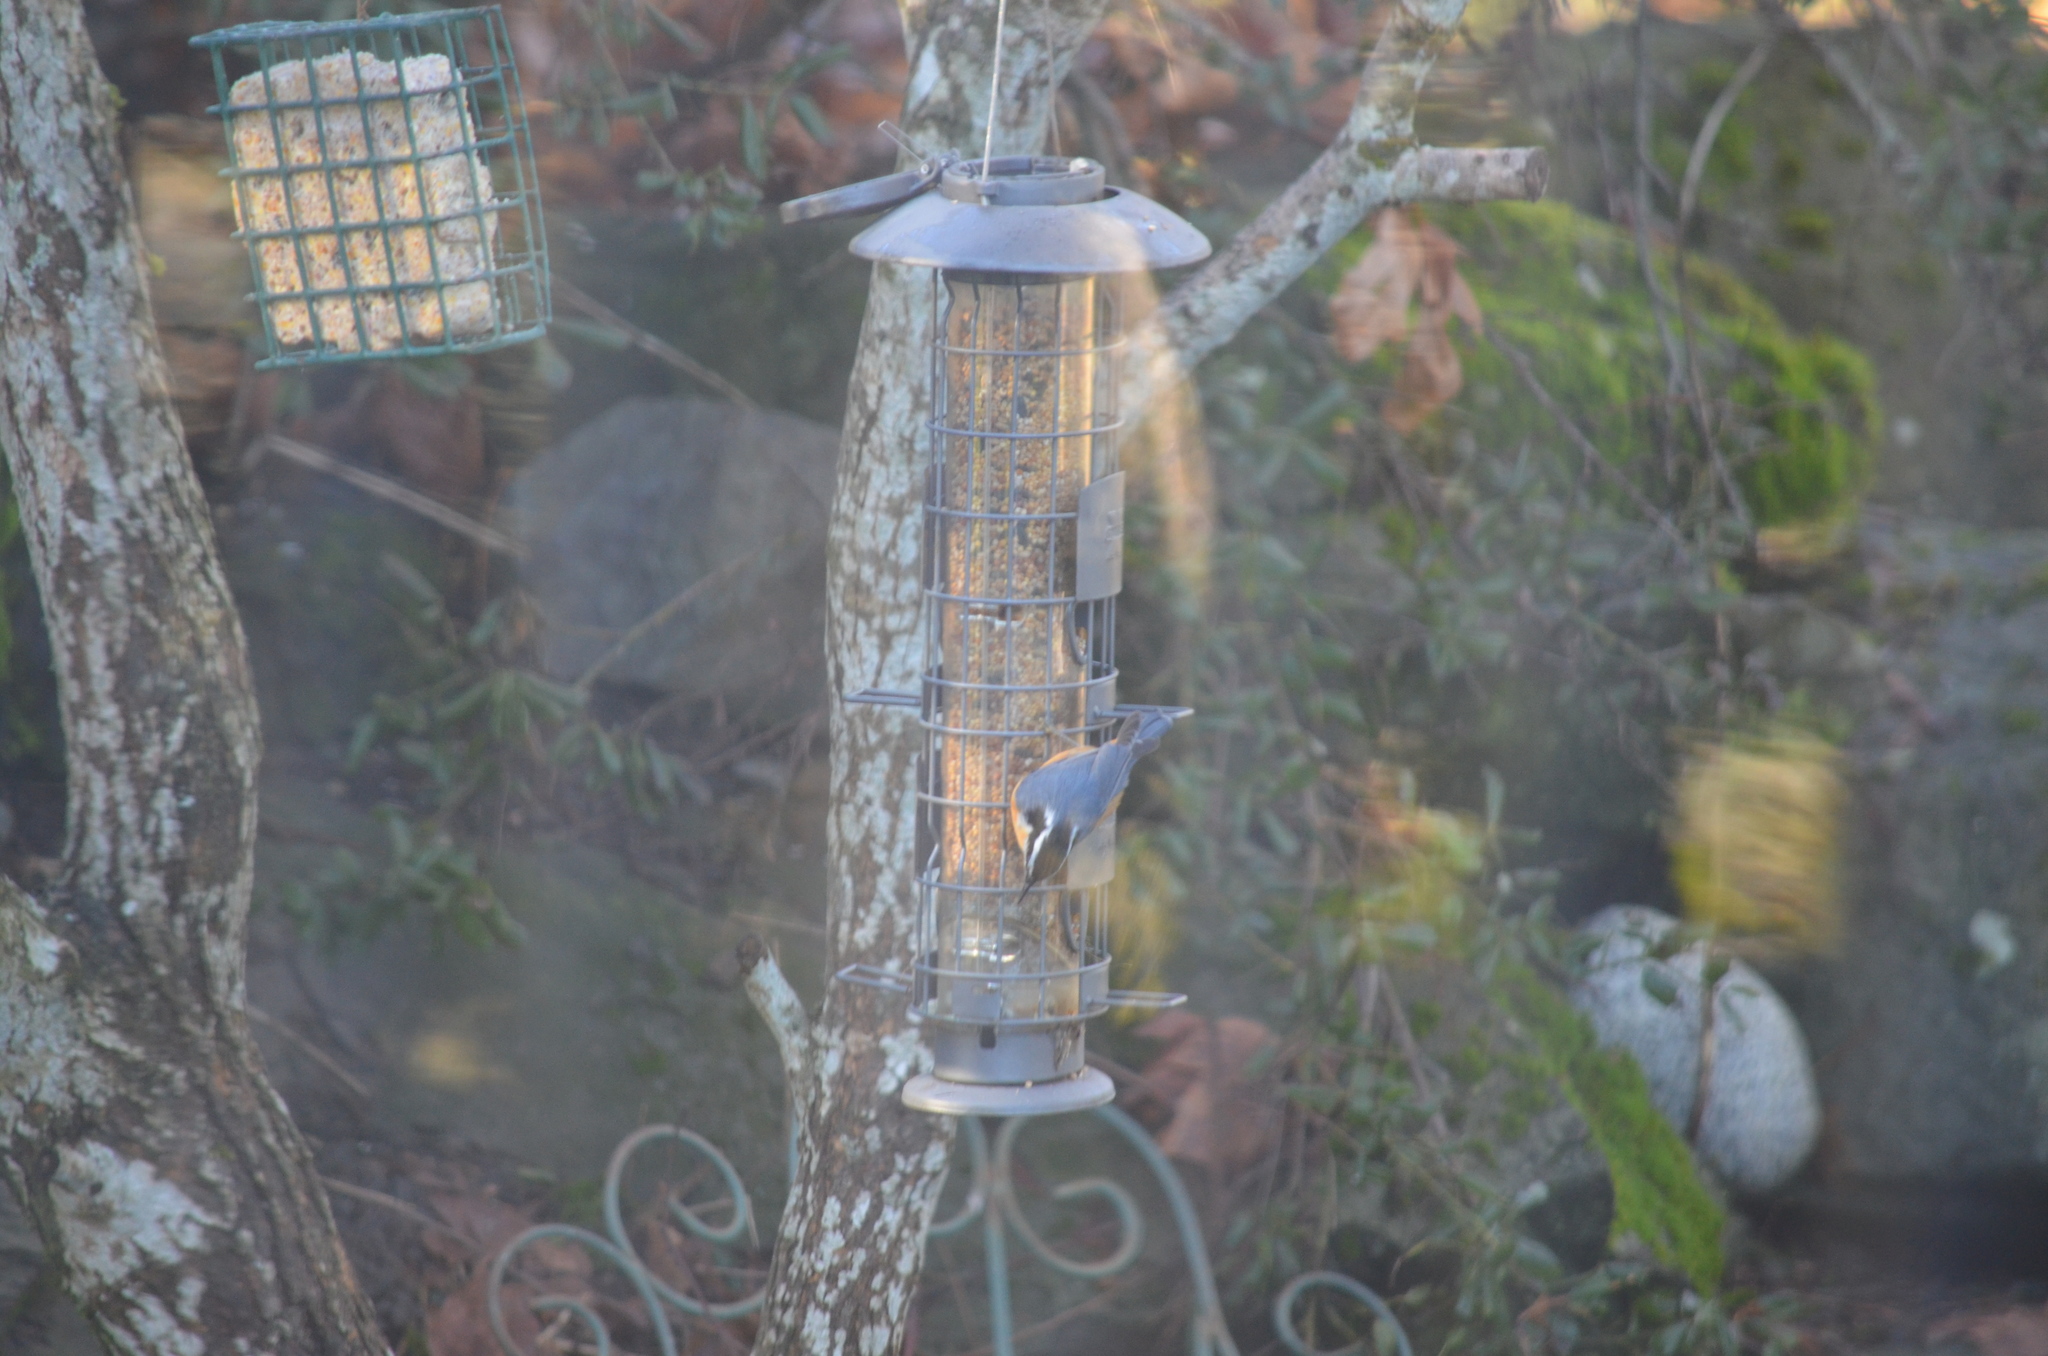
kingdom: Animalia
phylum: Chordata
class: Aves
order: Passeriformes
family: Sittidae
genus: Sitta
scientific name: Sitta canadensis
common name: Red-breasted nuthatch
